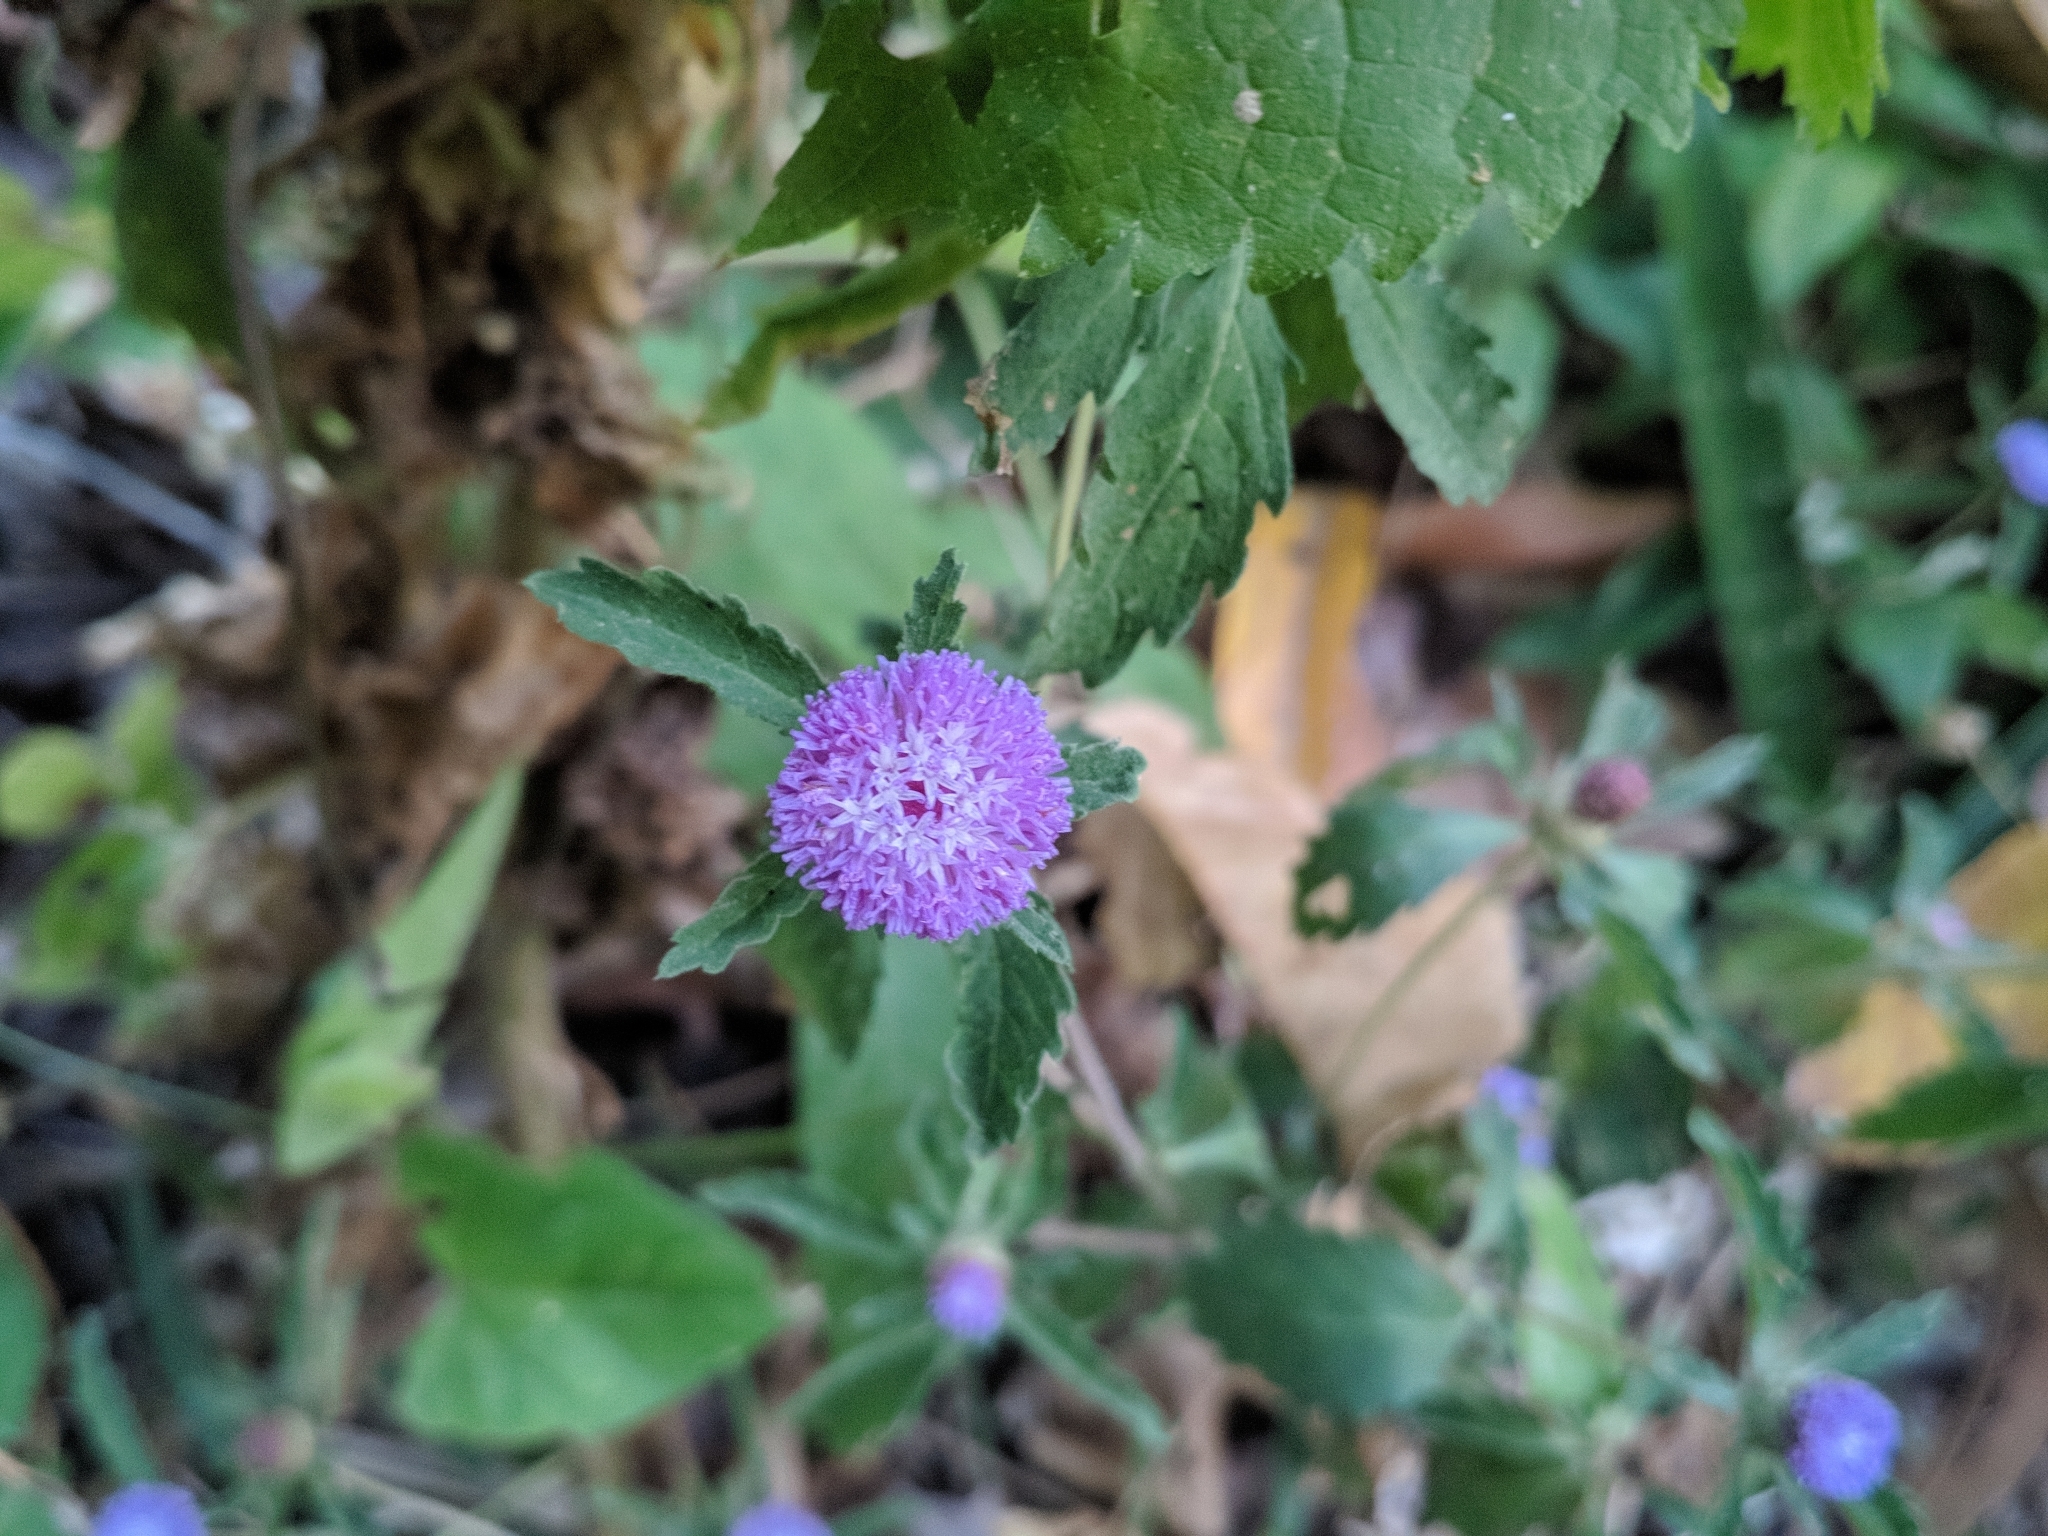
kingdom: Plantae
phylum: Tracheophyta
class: Magnoliopsida
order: Asterales
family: Asteraceae
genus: Centratherum
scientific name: Centratherum punctatum
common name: Larkdaisy
